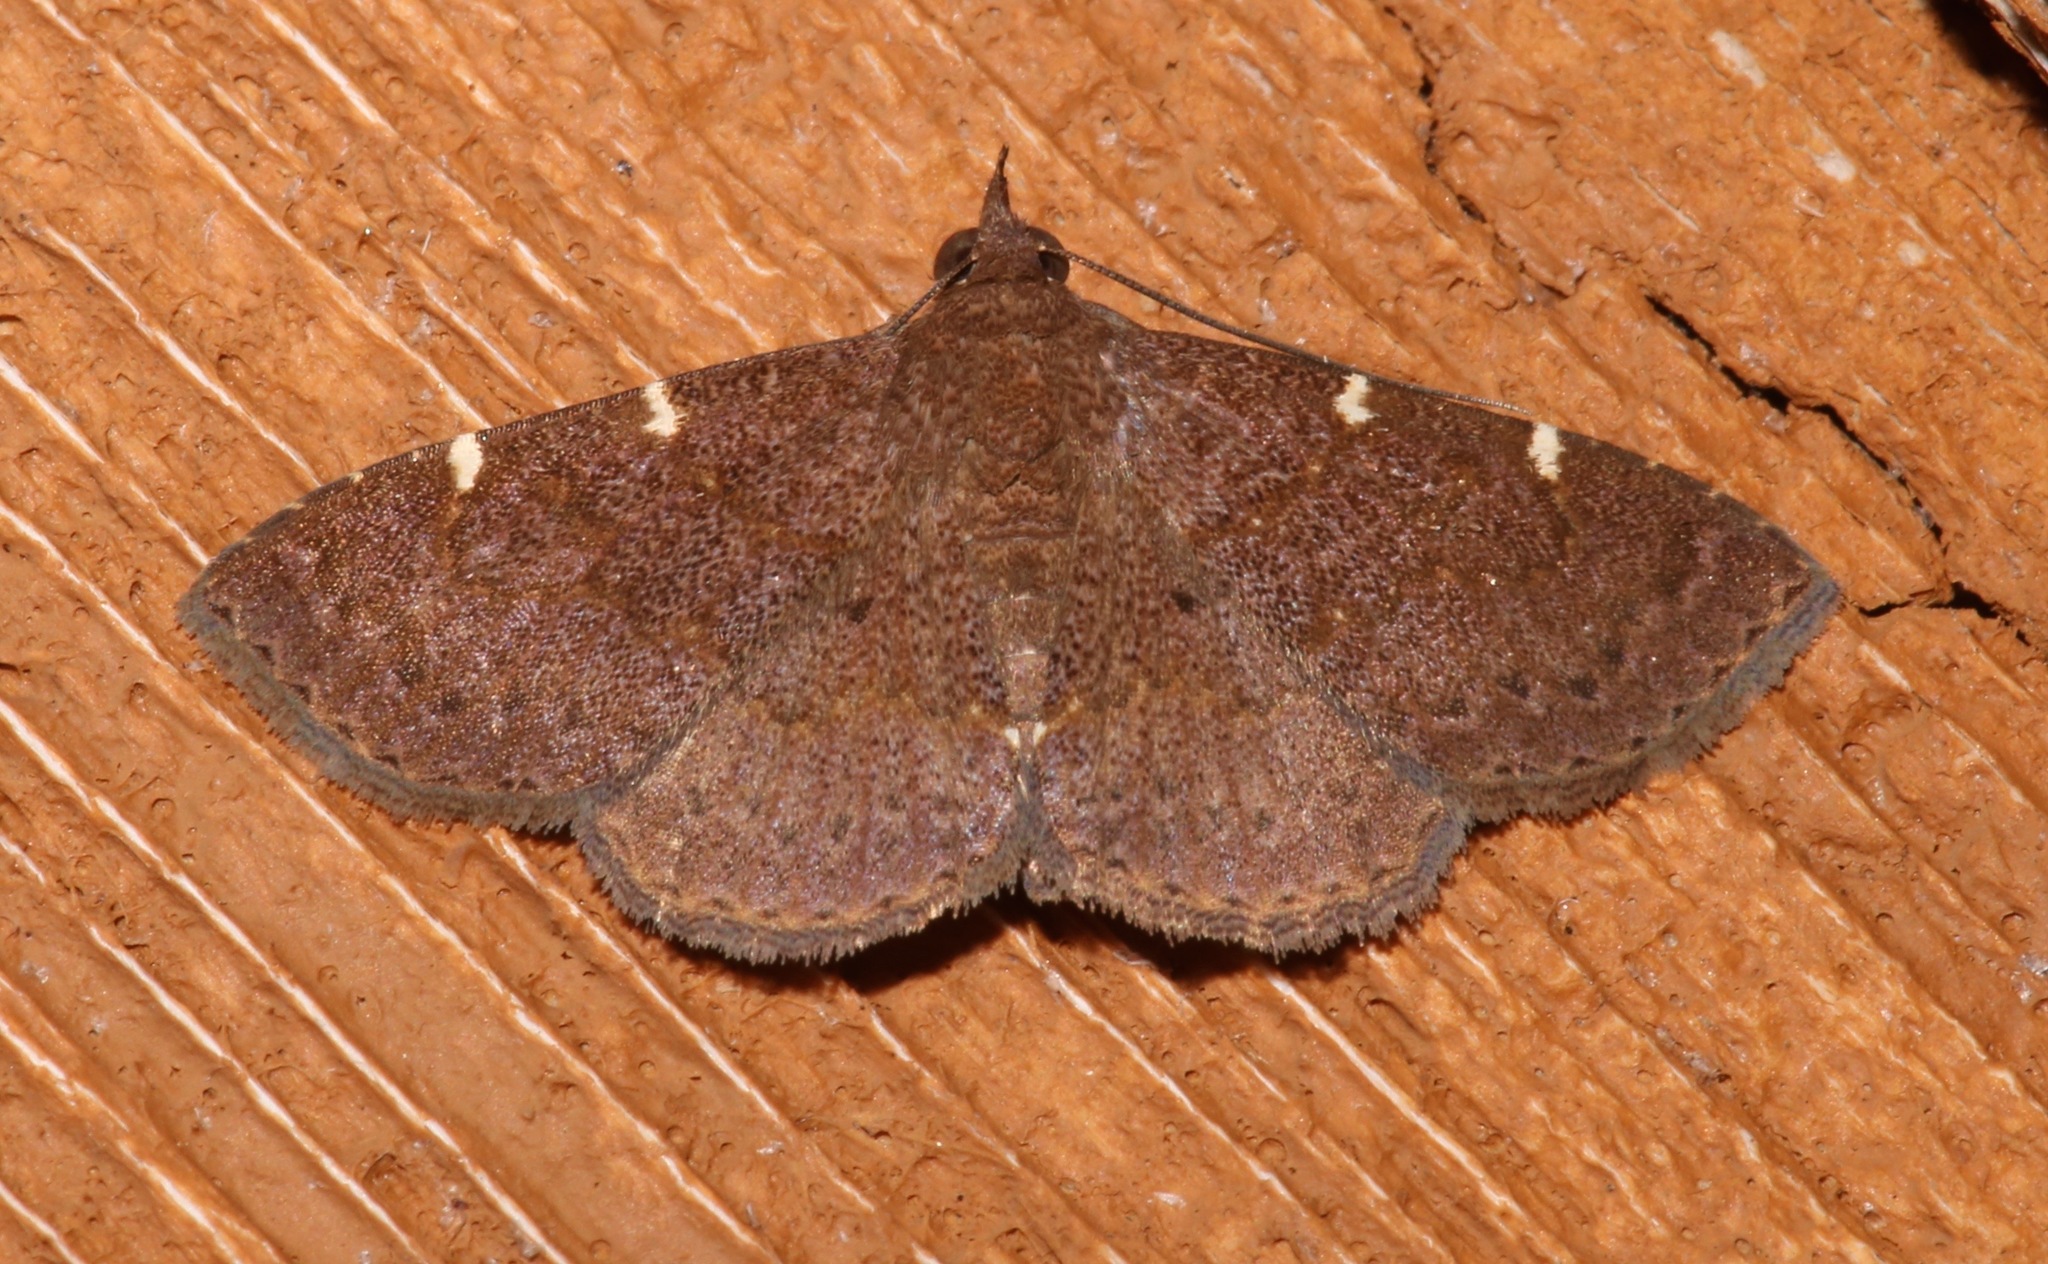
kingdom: Animalia
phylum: Arthropoda
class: Insecta
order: Lepidoptera
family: Erebidae
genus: Antiblemma
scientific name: Antiblemma perva
